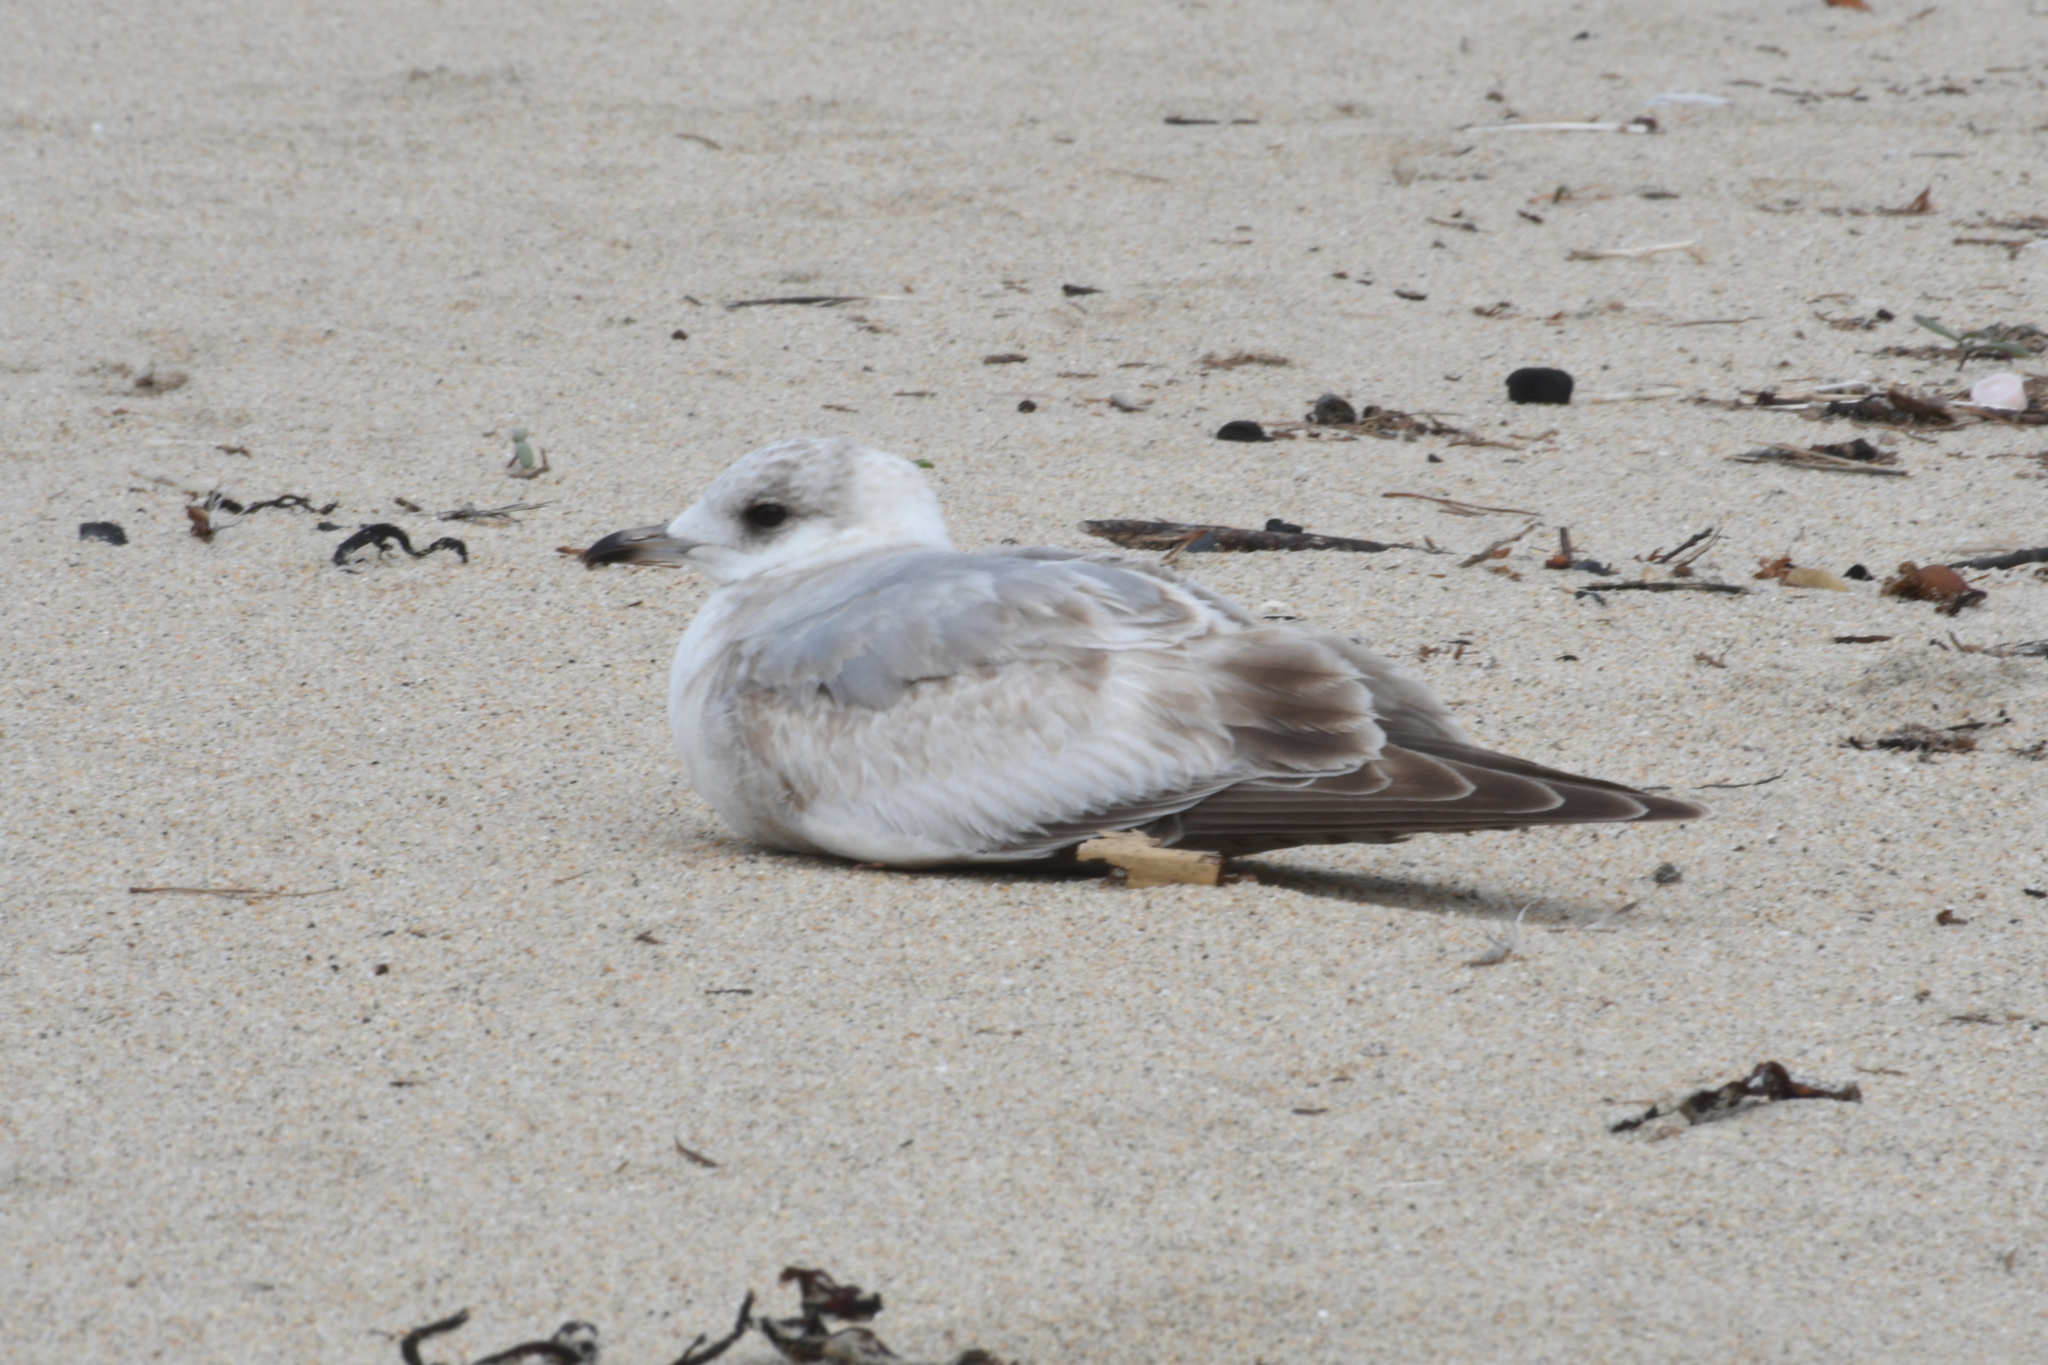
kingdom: Animalia
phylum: Chordata
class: Aves
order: Charadriiformes
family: Laridae
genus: Larus
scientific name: Larus brachyrhynchus
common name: Short-billed gull
